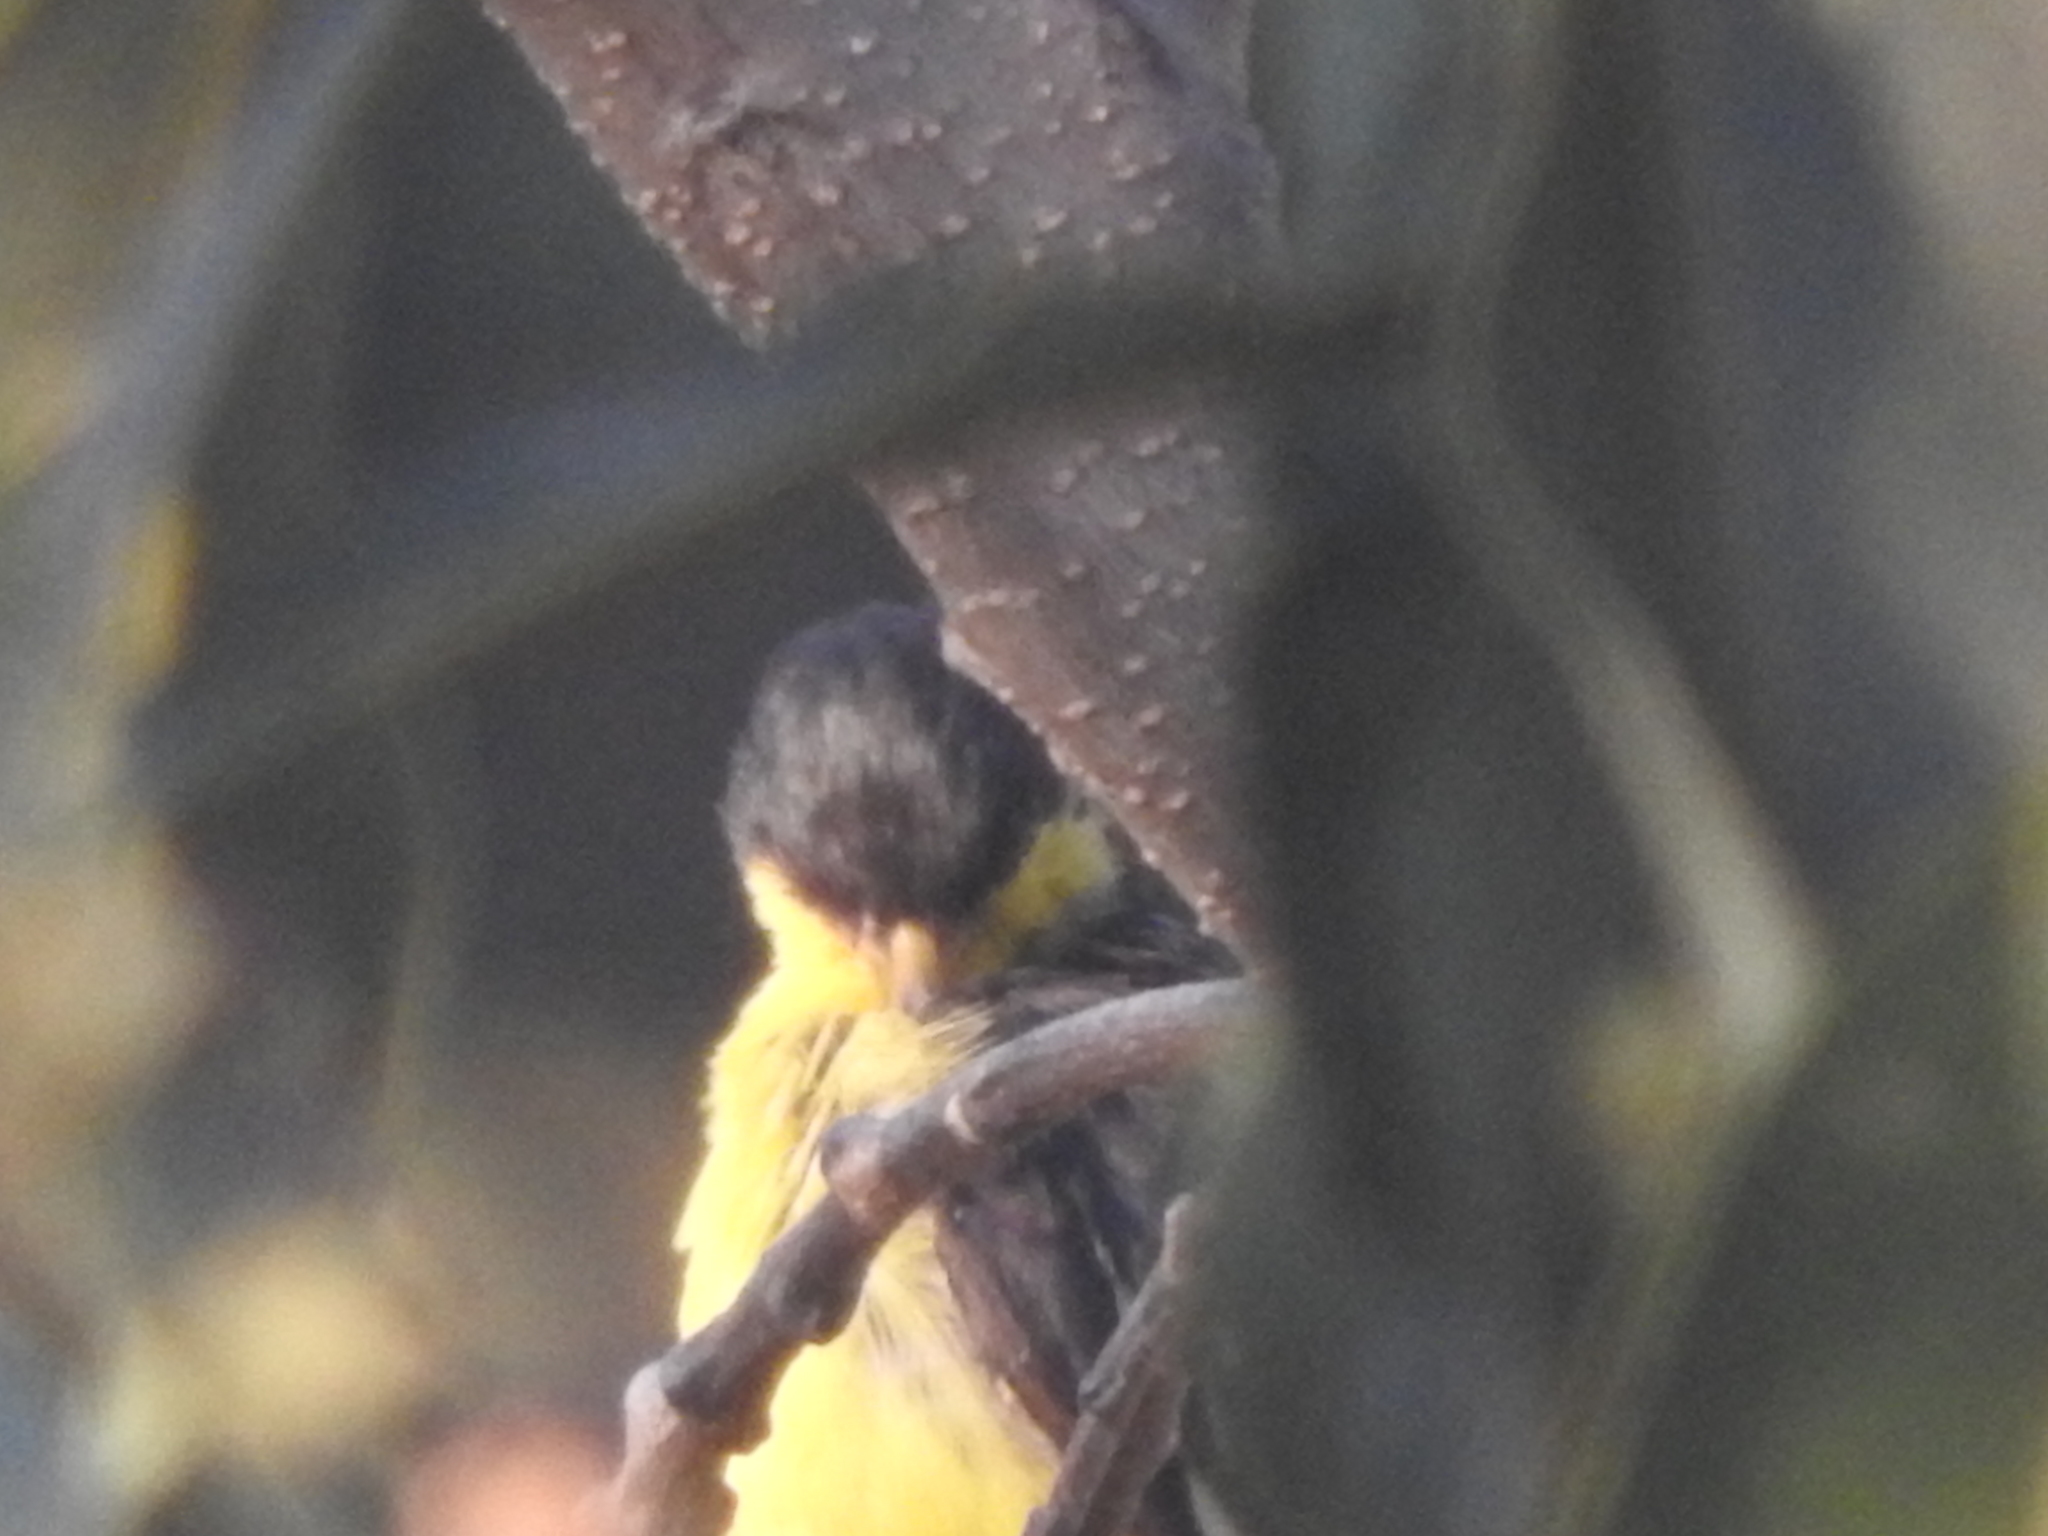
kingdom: Animalia
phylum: Chordata
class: Aves
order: Passeriformes
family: Fringillidae
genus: Spinus
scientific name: Spinus psaltria
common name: Lesser goldfinch
